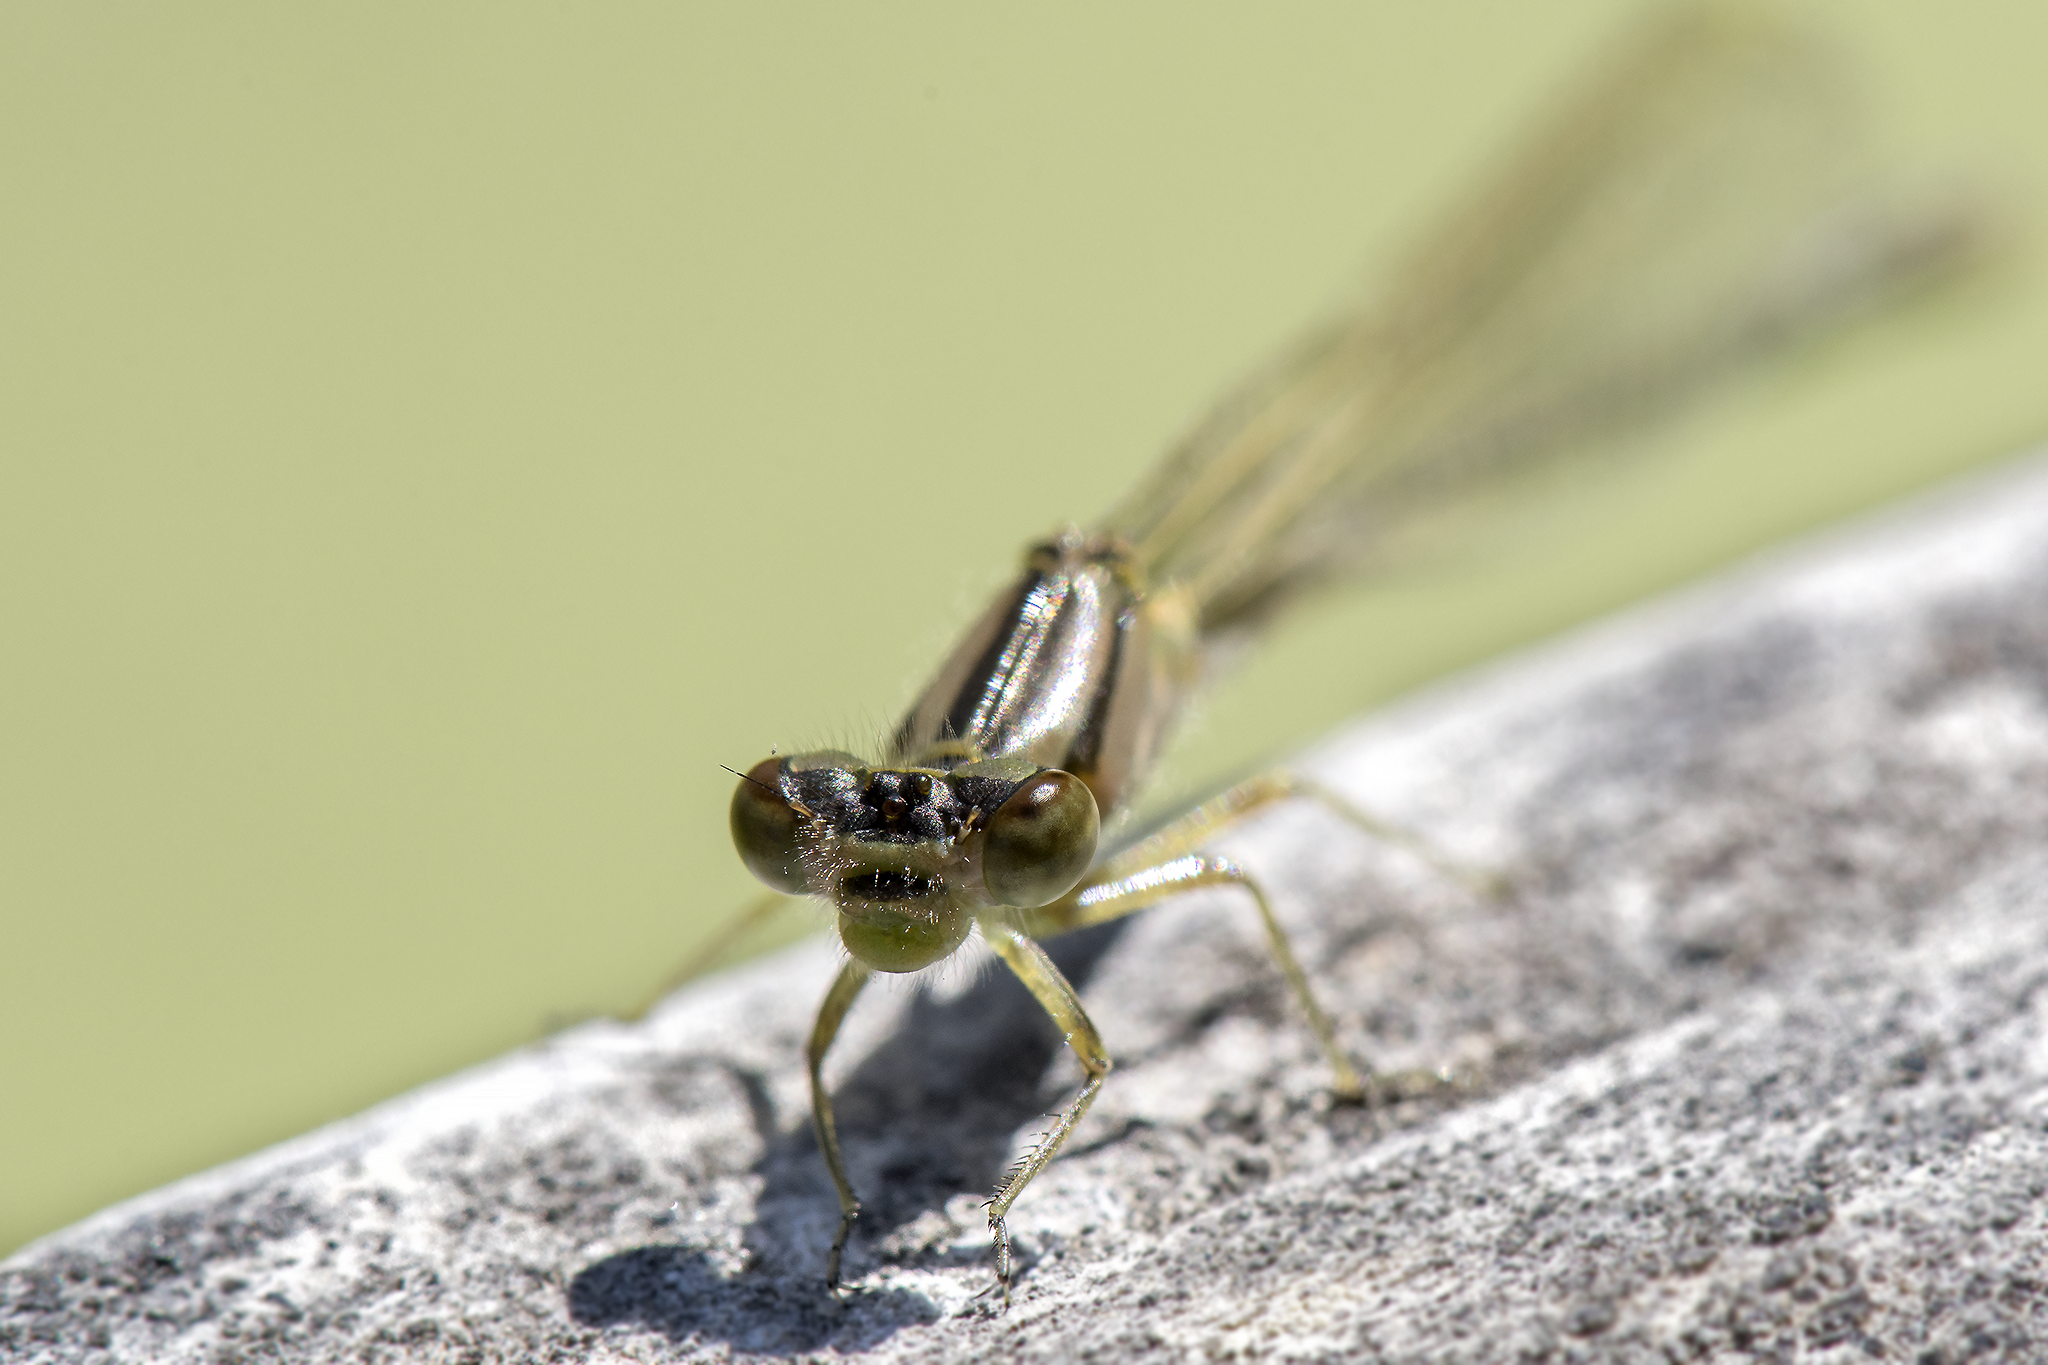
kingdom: Animalia
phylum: Arthropoda
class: Insecta
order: Odonata
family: Coenagrionidae
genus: Ischnura
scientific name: Ischnura cervula
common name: Pacific forktail
